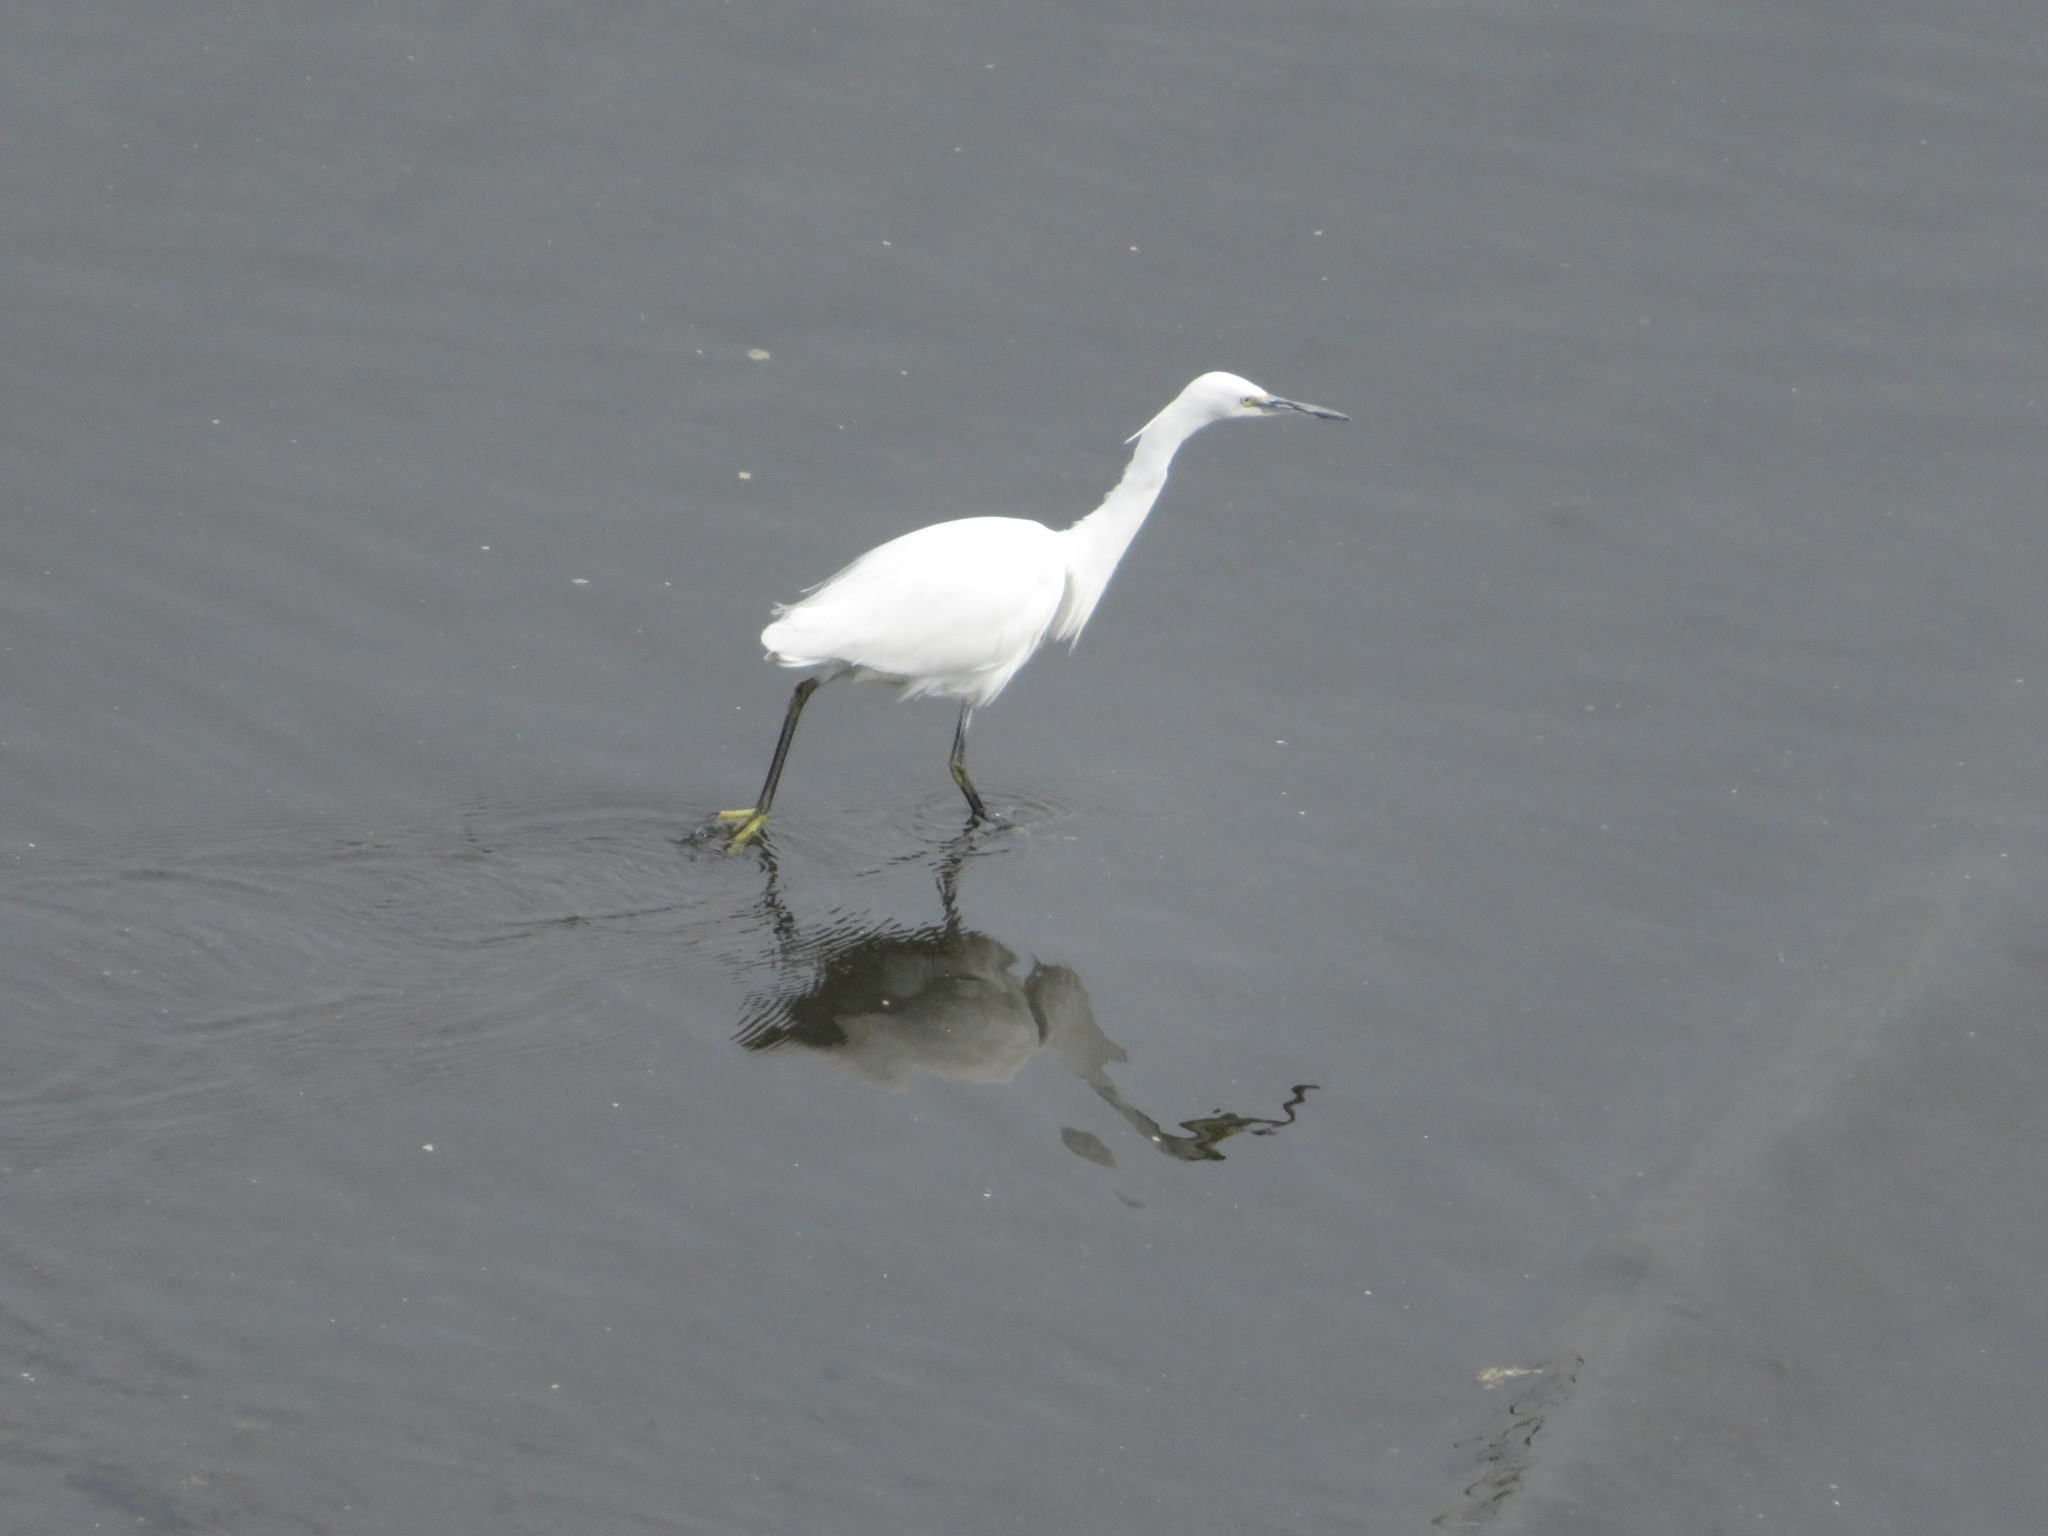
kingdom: Animalia
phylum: Chordata
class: Aves
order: Pelecaniformes
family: Ardeidae
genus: Egretta
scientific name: Egretta garzetta
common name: Little egret
